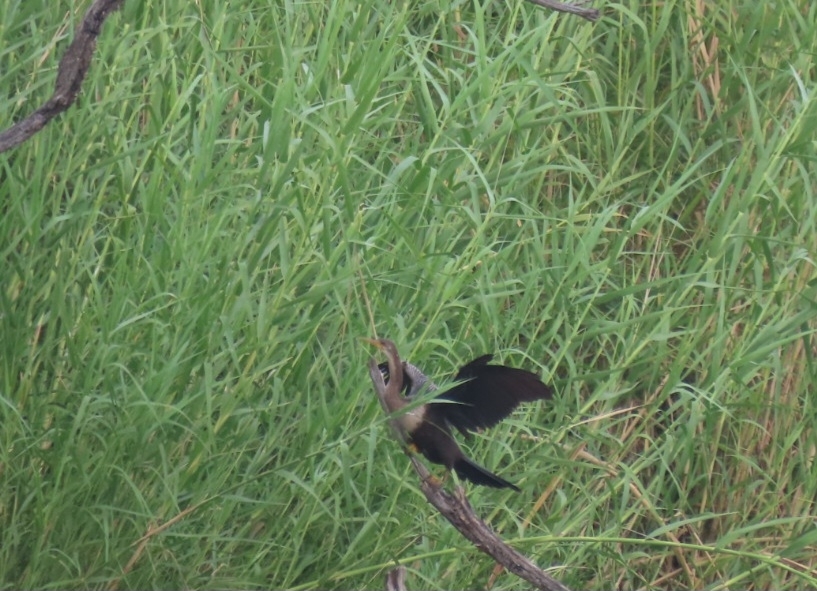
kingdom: Animalia
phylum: Chordata
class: Aves
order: Suliformes
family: Anhingidae
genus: Anhinga
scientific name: Anhinga anhinga
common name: Anhinga
